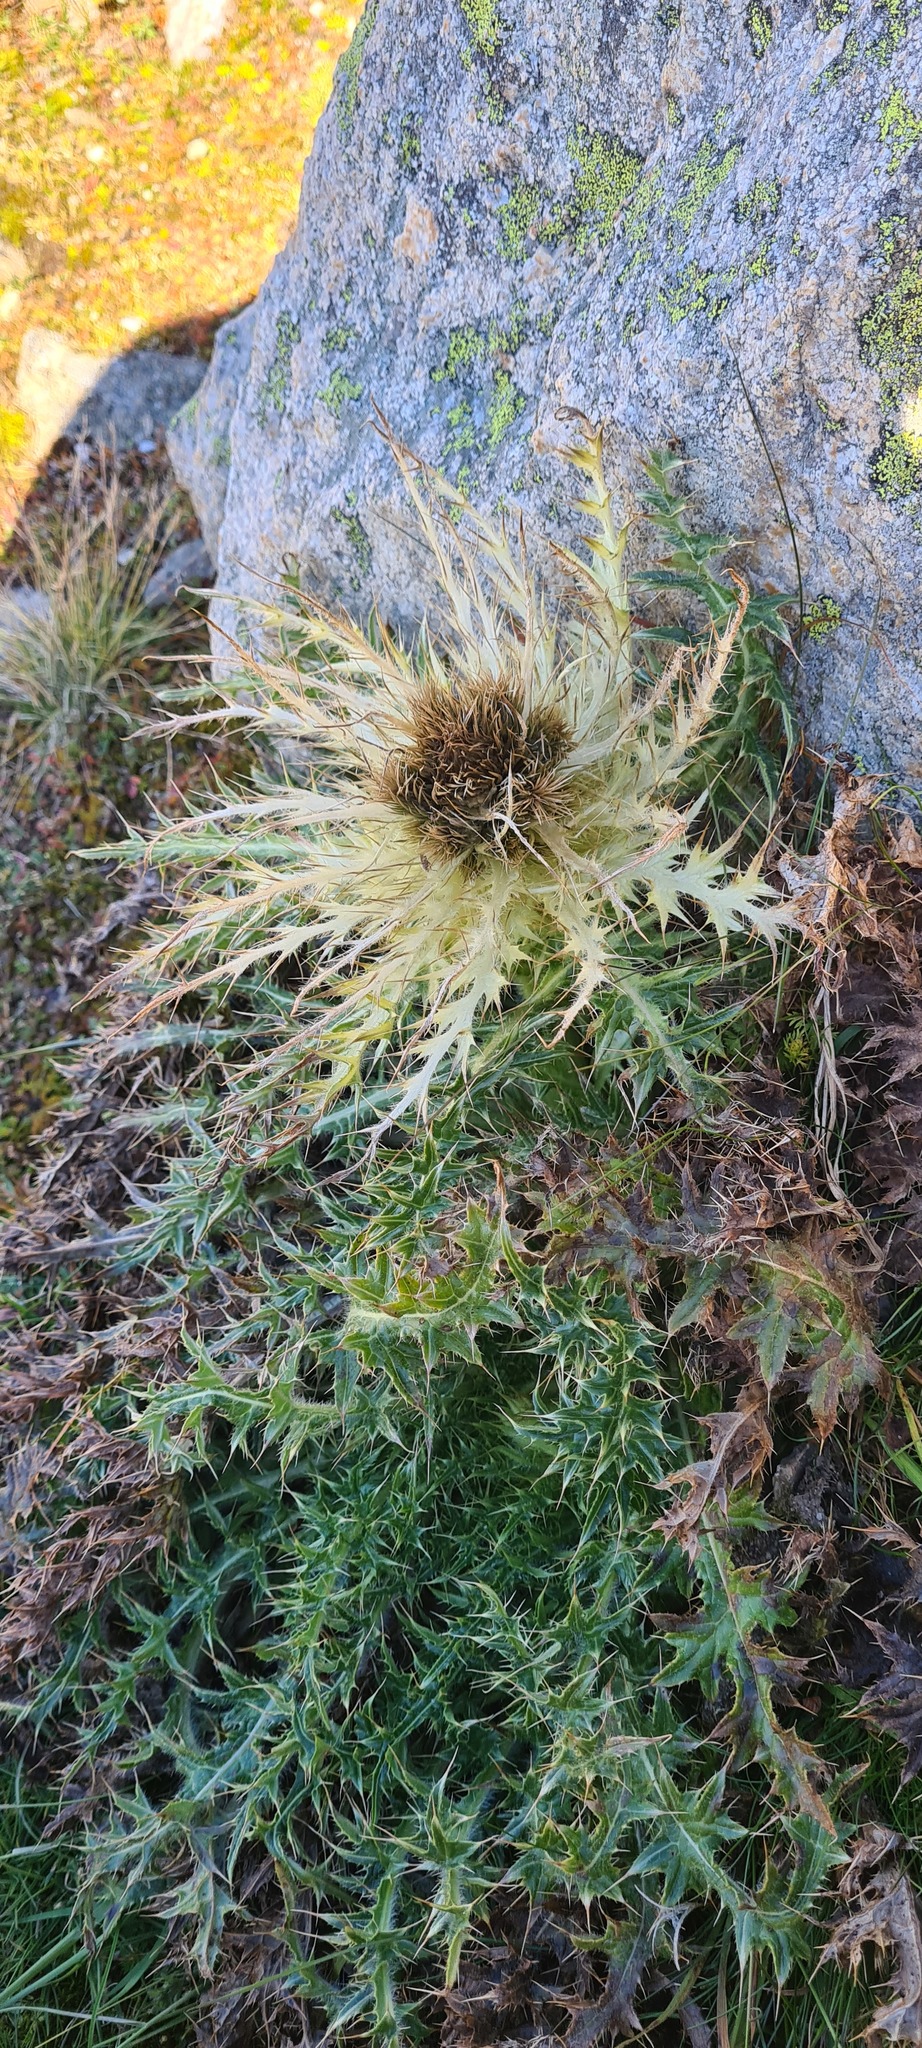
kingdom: Plantae
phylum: Tracheophyta
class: Magnoliopsida
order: Asterales
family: Asteraceae
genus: Cirsium
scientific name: Cirsium spinosissimum
